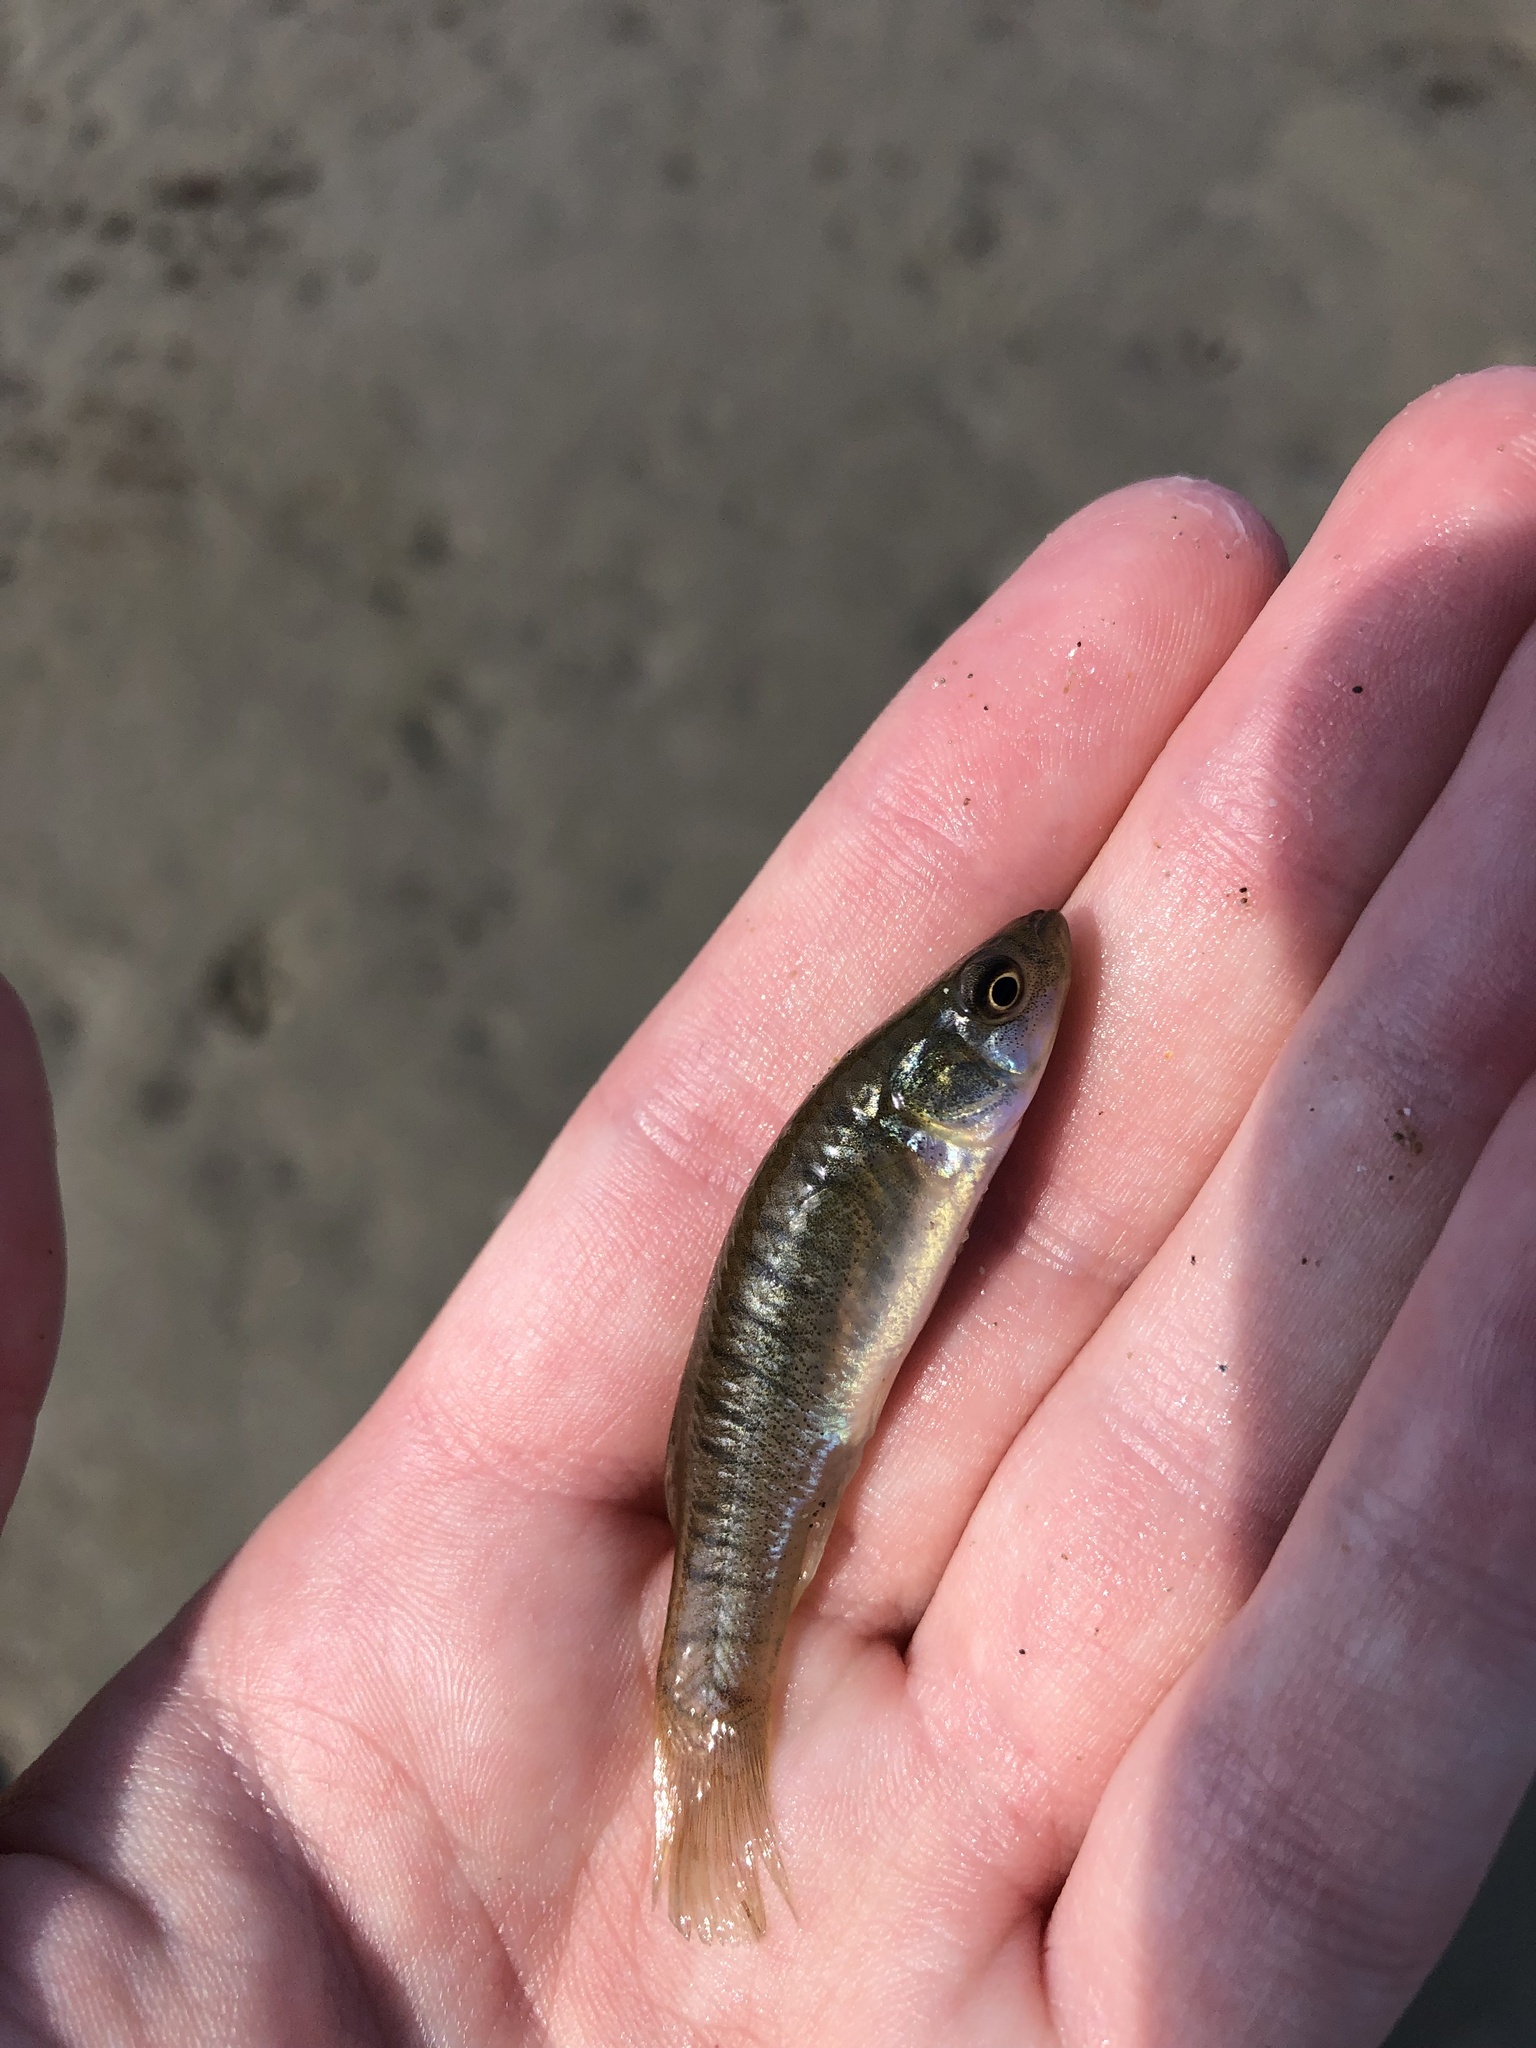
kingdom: Animalia
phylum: Chordata
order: Cyprinodontiformes
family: Fundulidae
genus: Fundulus
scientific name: Fundulus heteroclitus
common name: Mummichog
